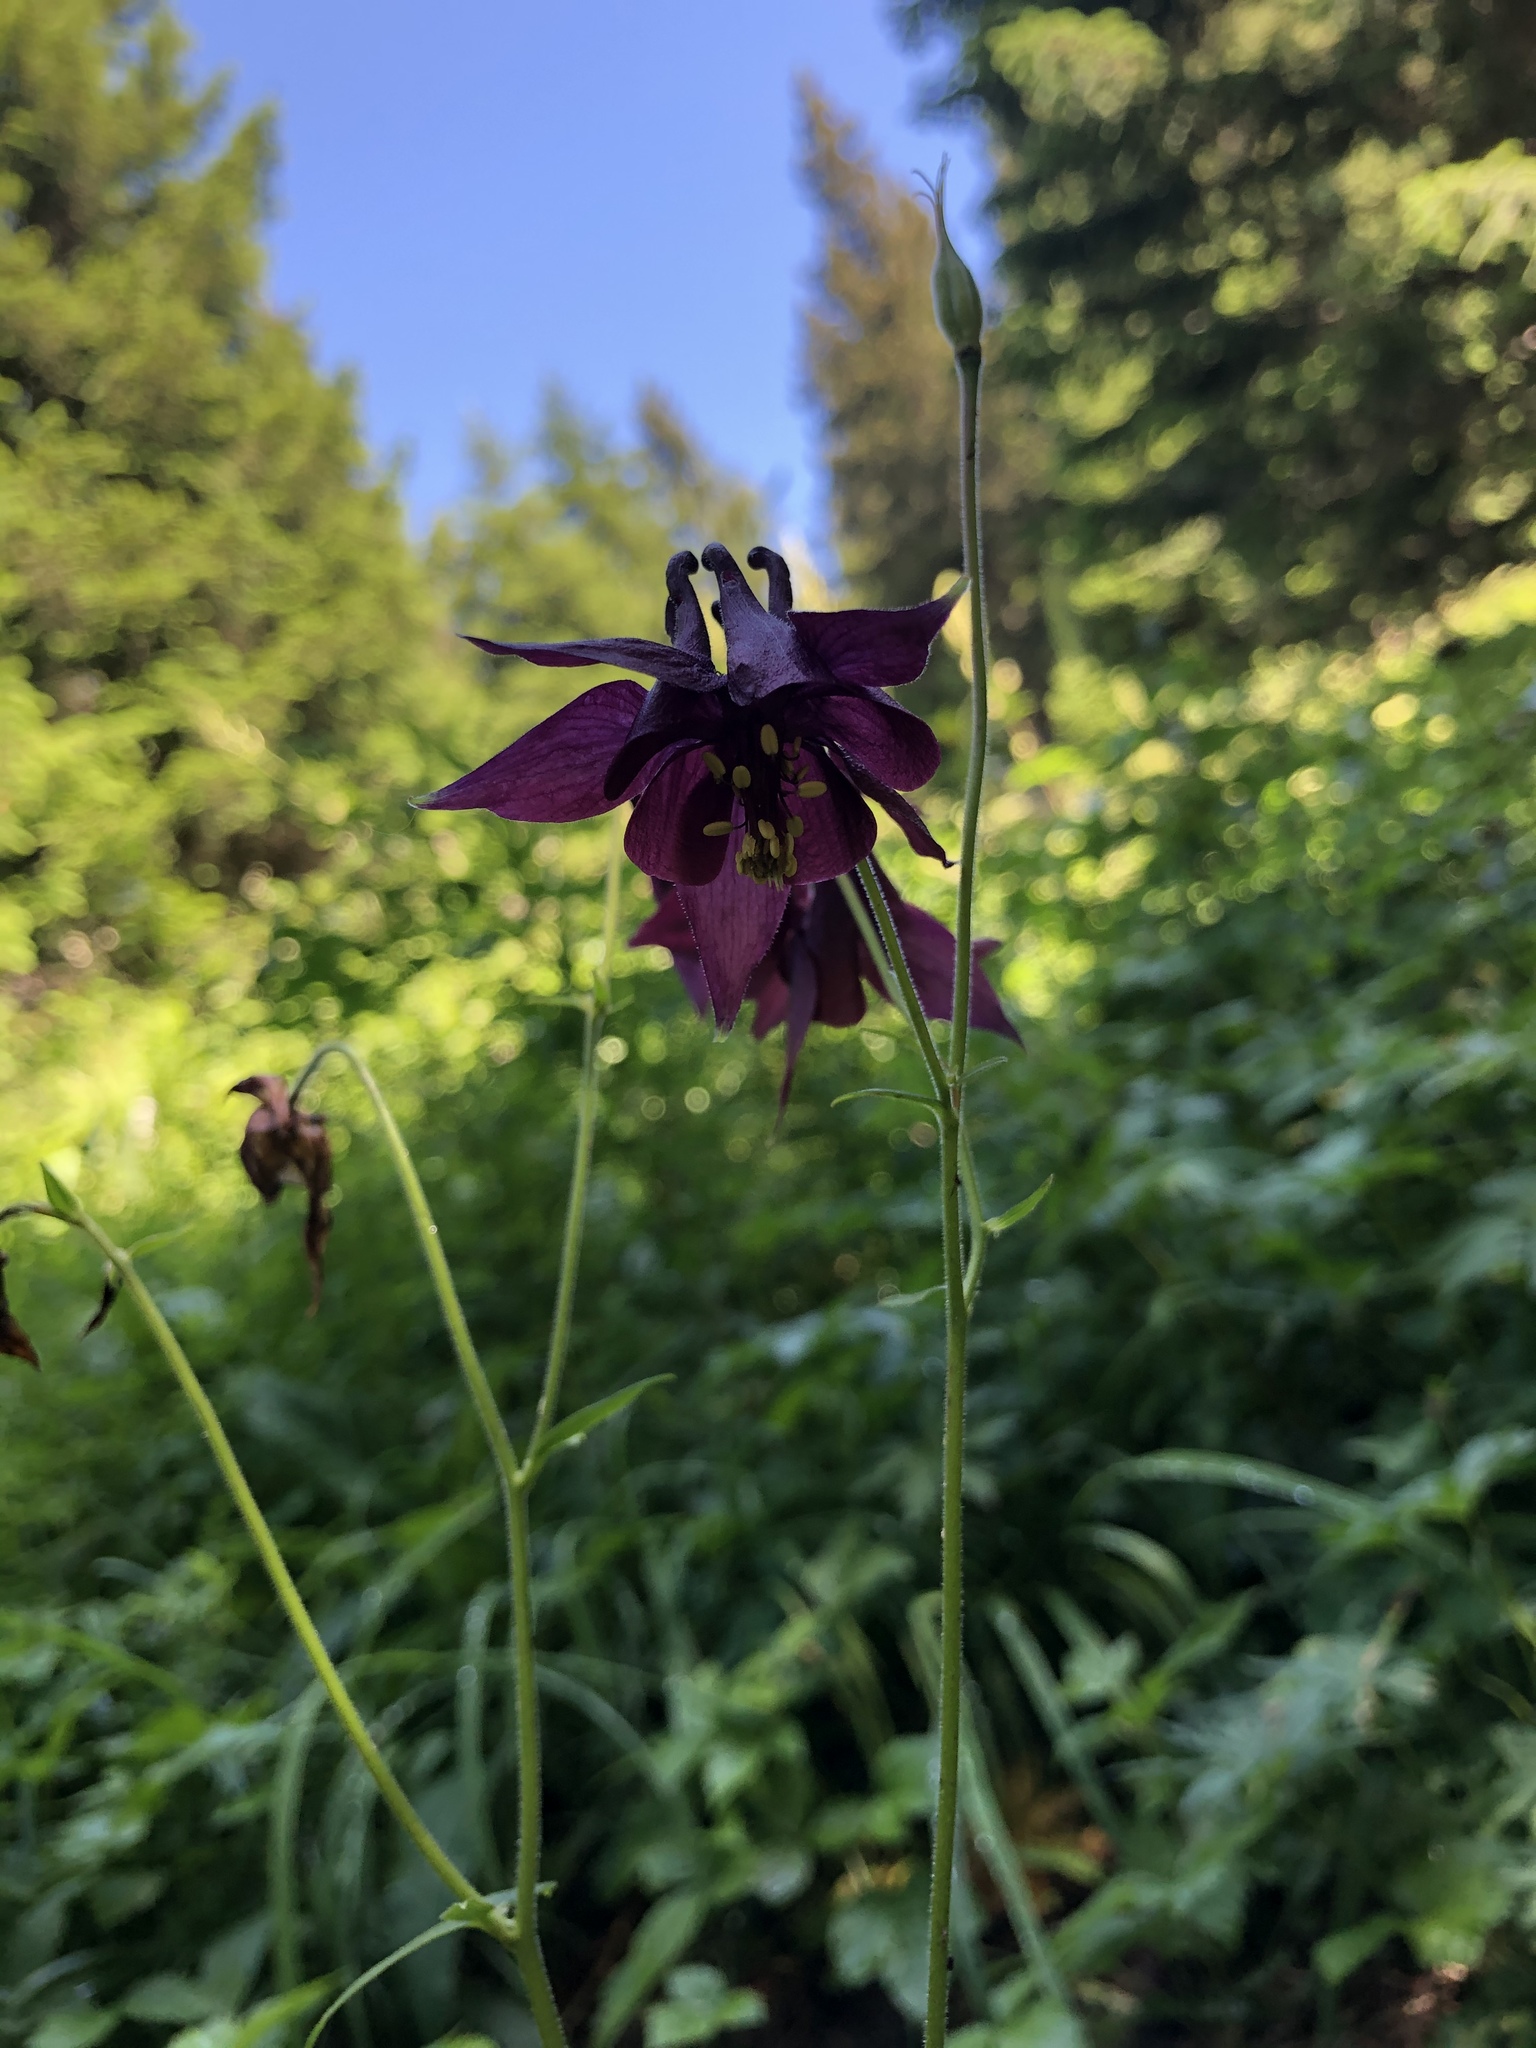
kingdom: Plantae
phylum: Tracheophyta
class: Magnoliopsida
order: Ranunculales
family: Ranunculaceae
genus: Aquilegia
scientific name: Aquilegia atrata
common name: Dark columbine
